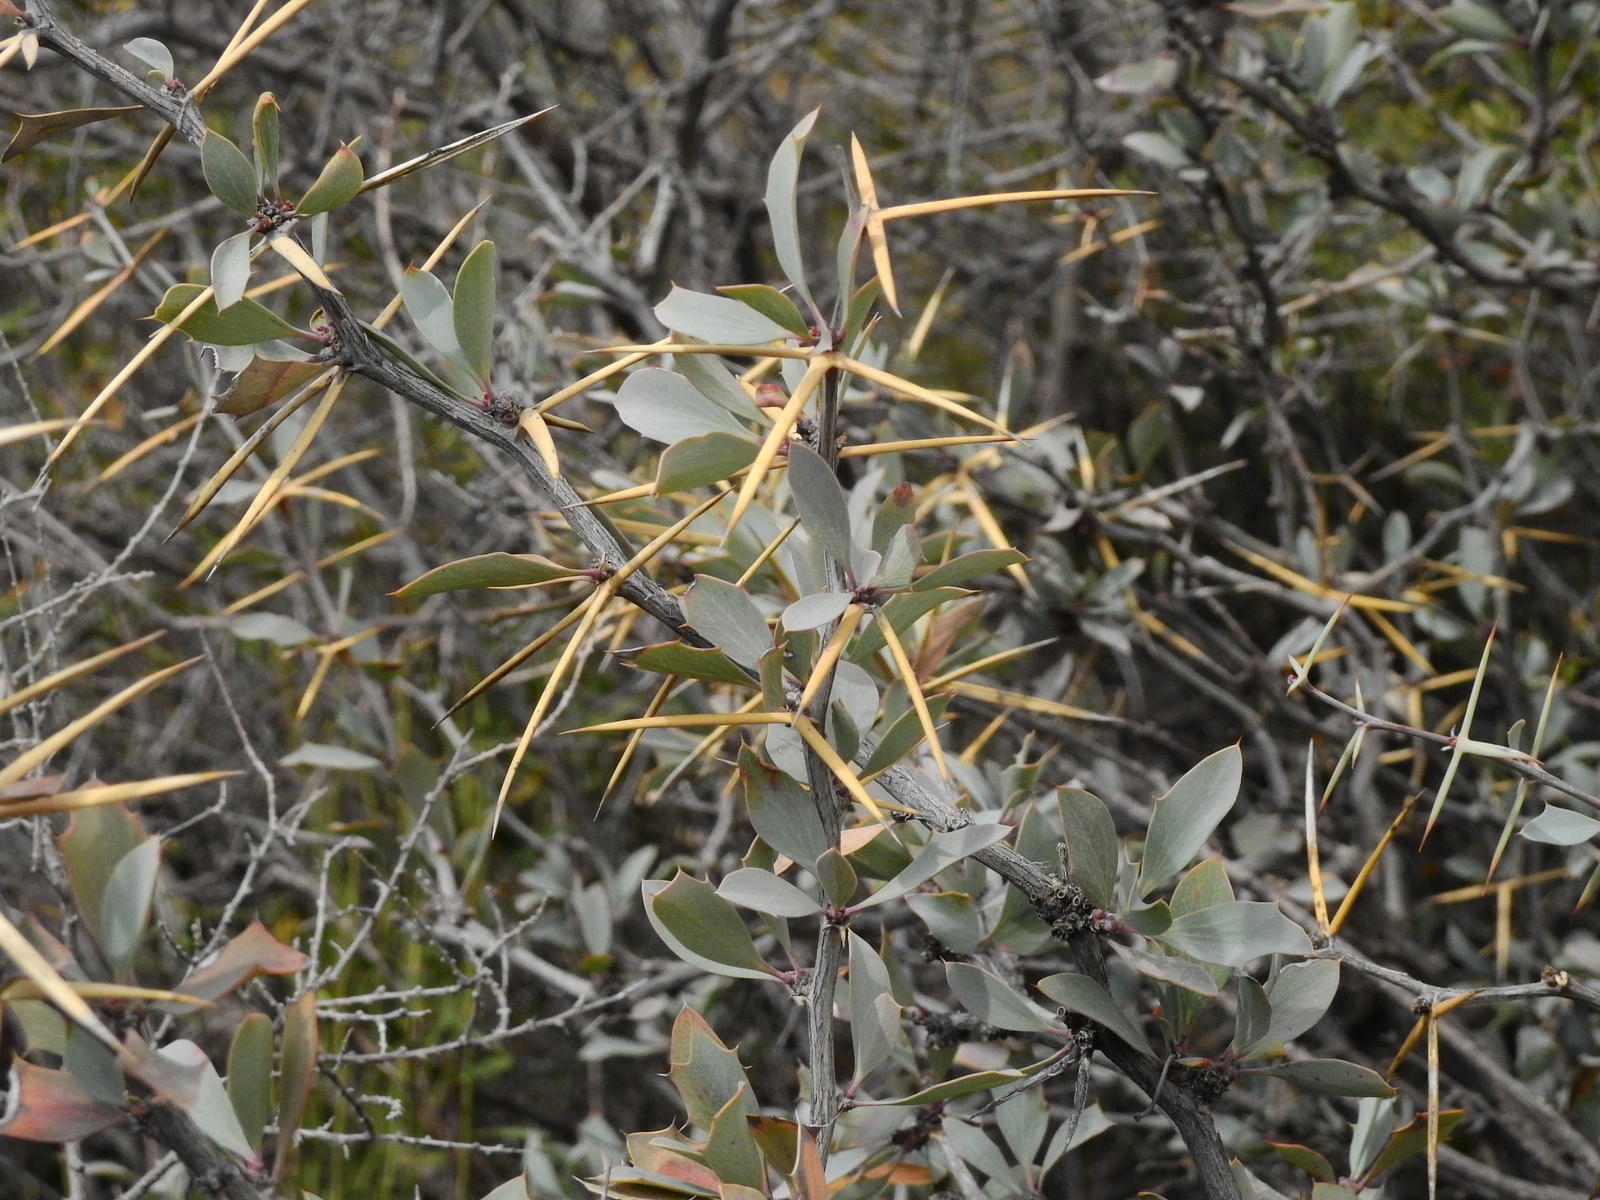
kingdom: Plantae
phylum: Tracheophyta
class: Magnoliopsida
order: Ranunculales
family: Berberidaceae
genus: Berberis
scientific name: Berberis grevilleana
